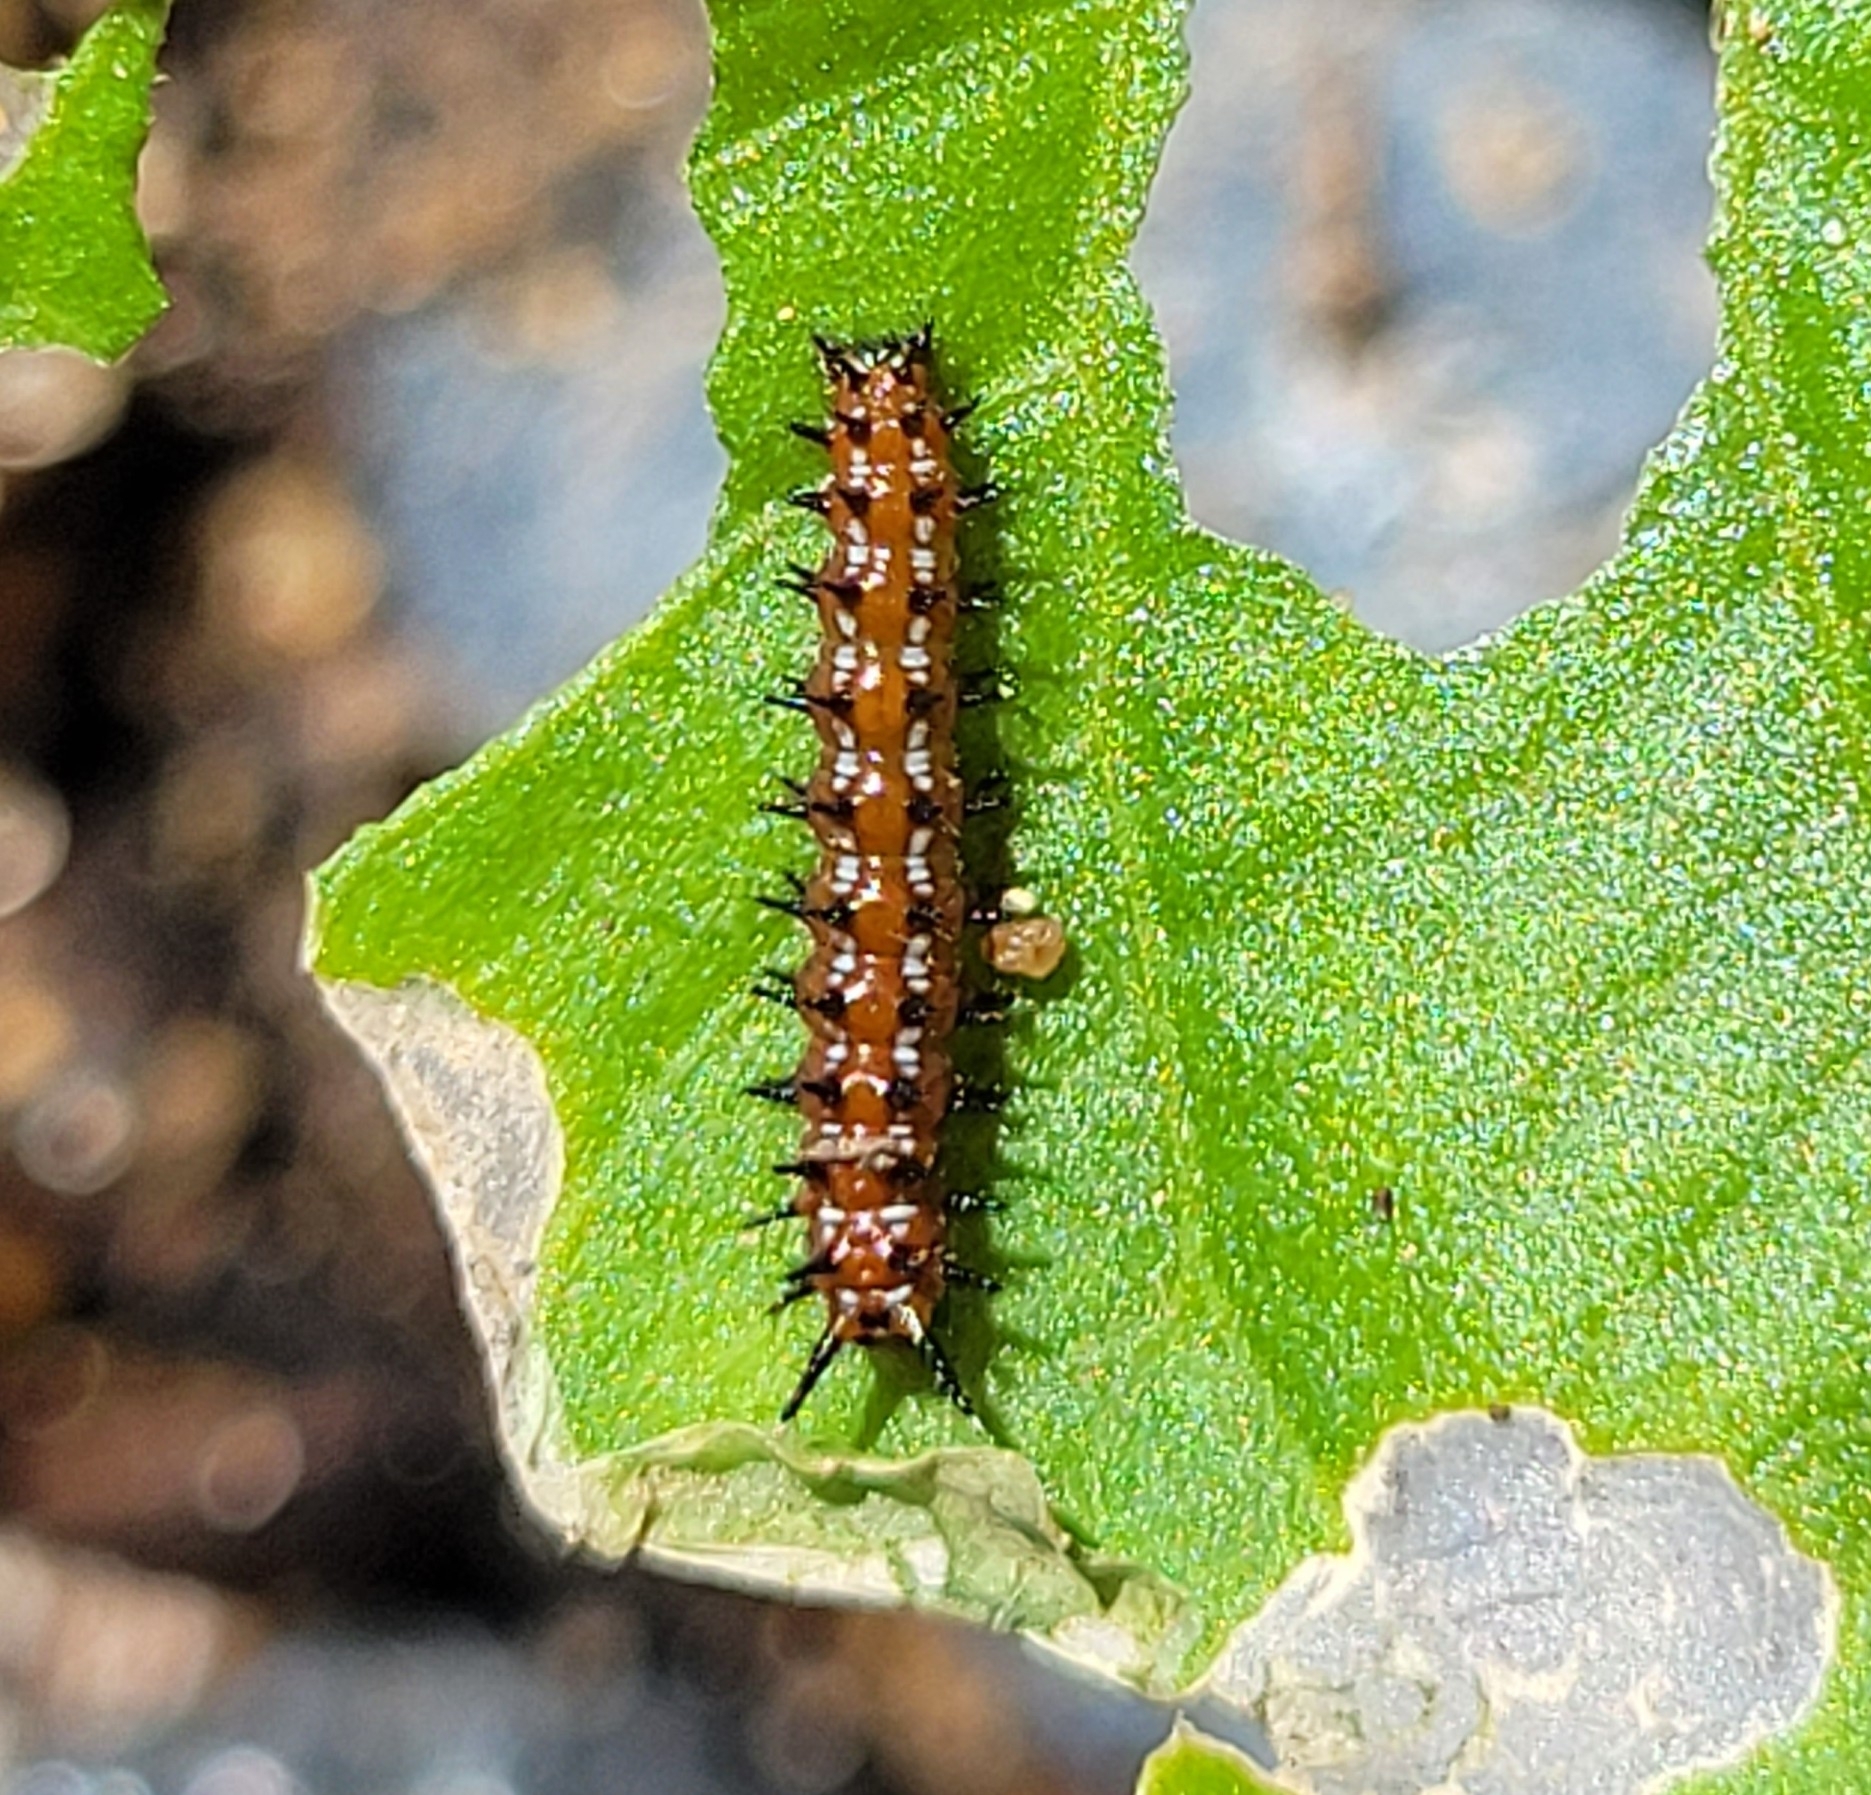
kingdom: Animalia
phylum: Arthropoda
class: Insecta
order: Lepidoptera
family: Nymphalidae
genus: Euptoieta
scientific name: Euptoieta claudia
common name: Variegated fritillary
